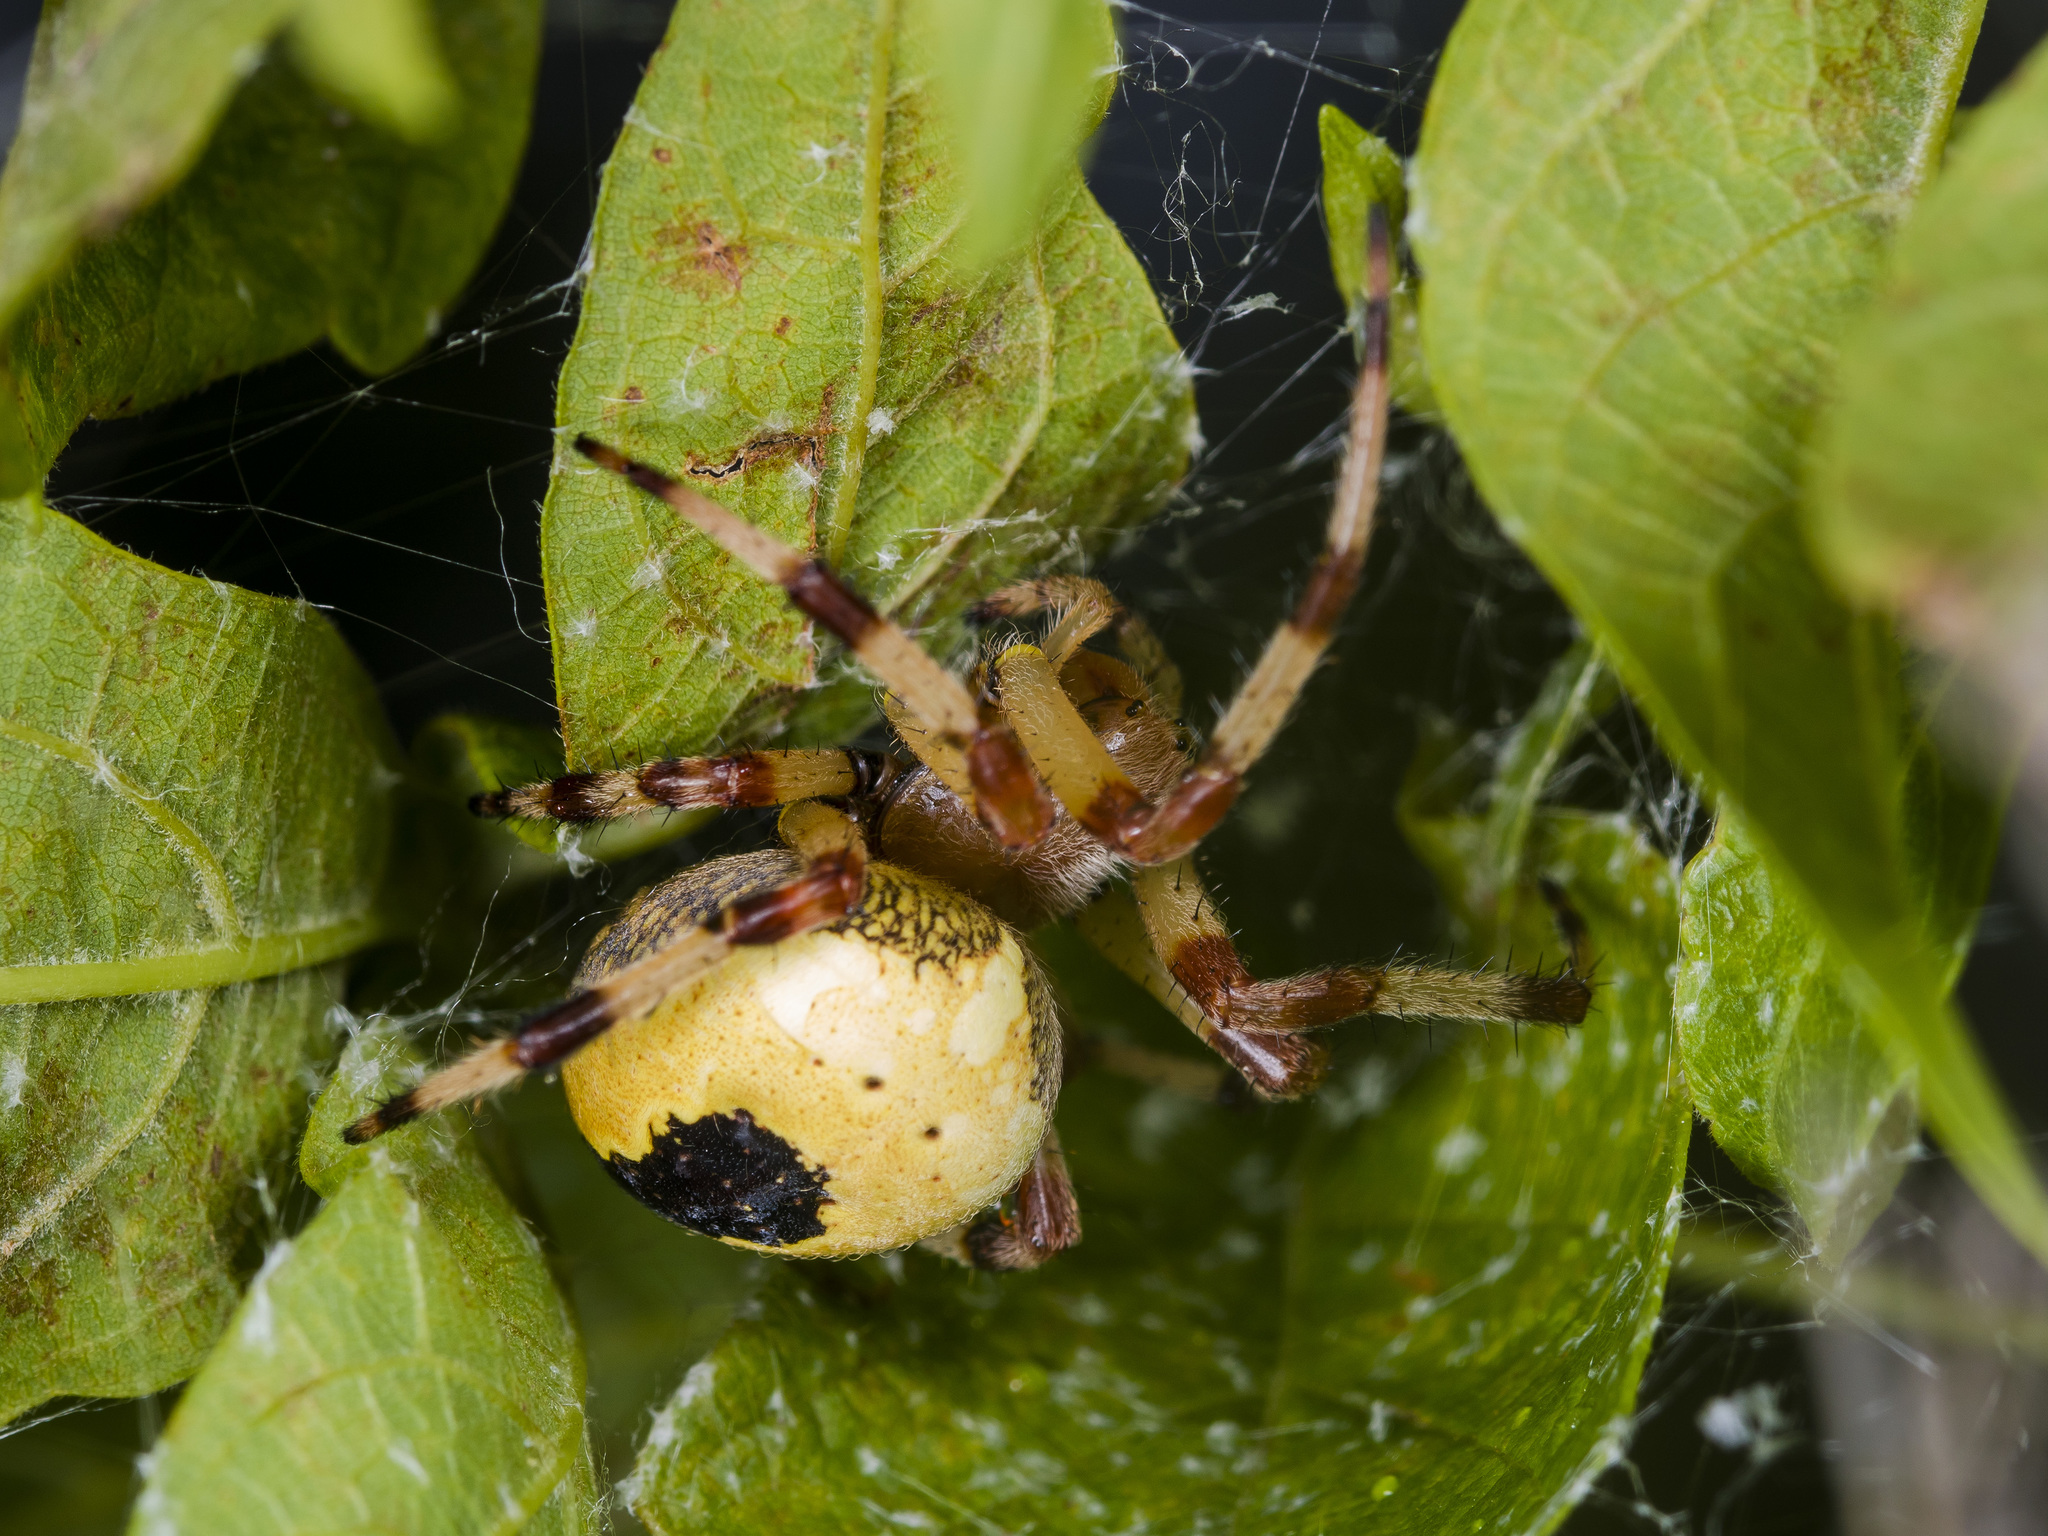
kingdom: Animalia
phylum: Arthropoda
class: Arachnida
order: Araneae
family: Araneidae
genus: Araneus
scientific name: Araneus marmoreus
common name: Marbled orbweaver
